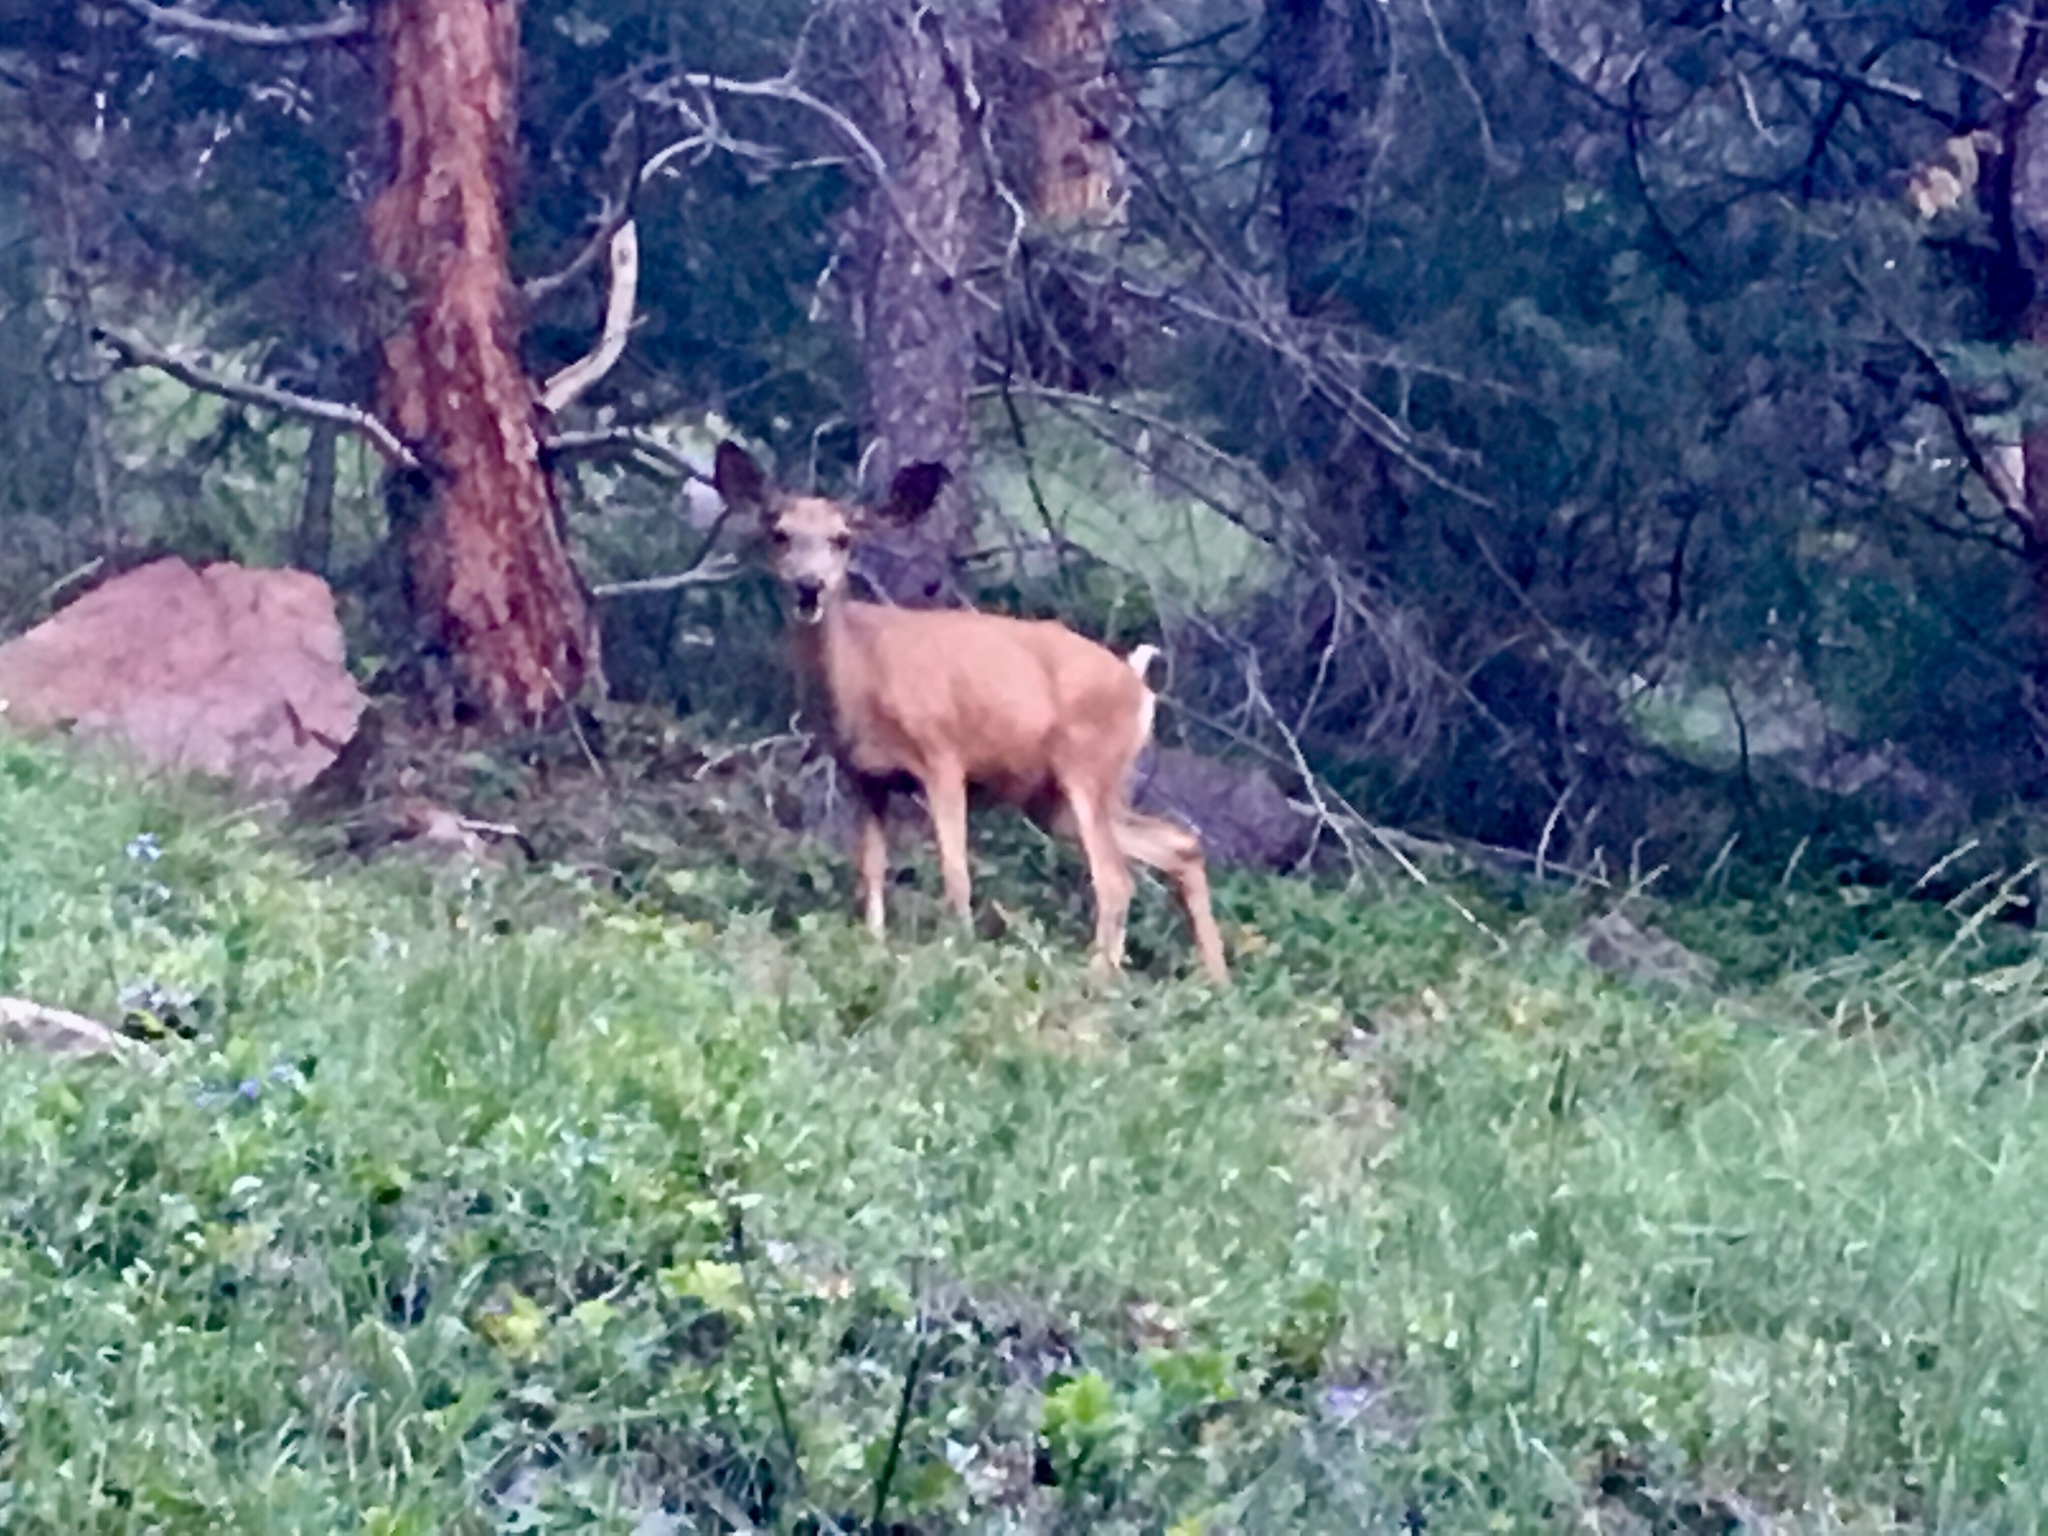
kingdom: Animalia
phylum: Chordata
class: Mammalia
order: Artiodactyla
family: Cervidae
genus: Odocoileus
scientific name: Odocoileus hemionus
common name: Mule deer
